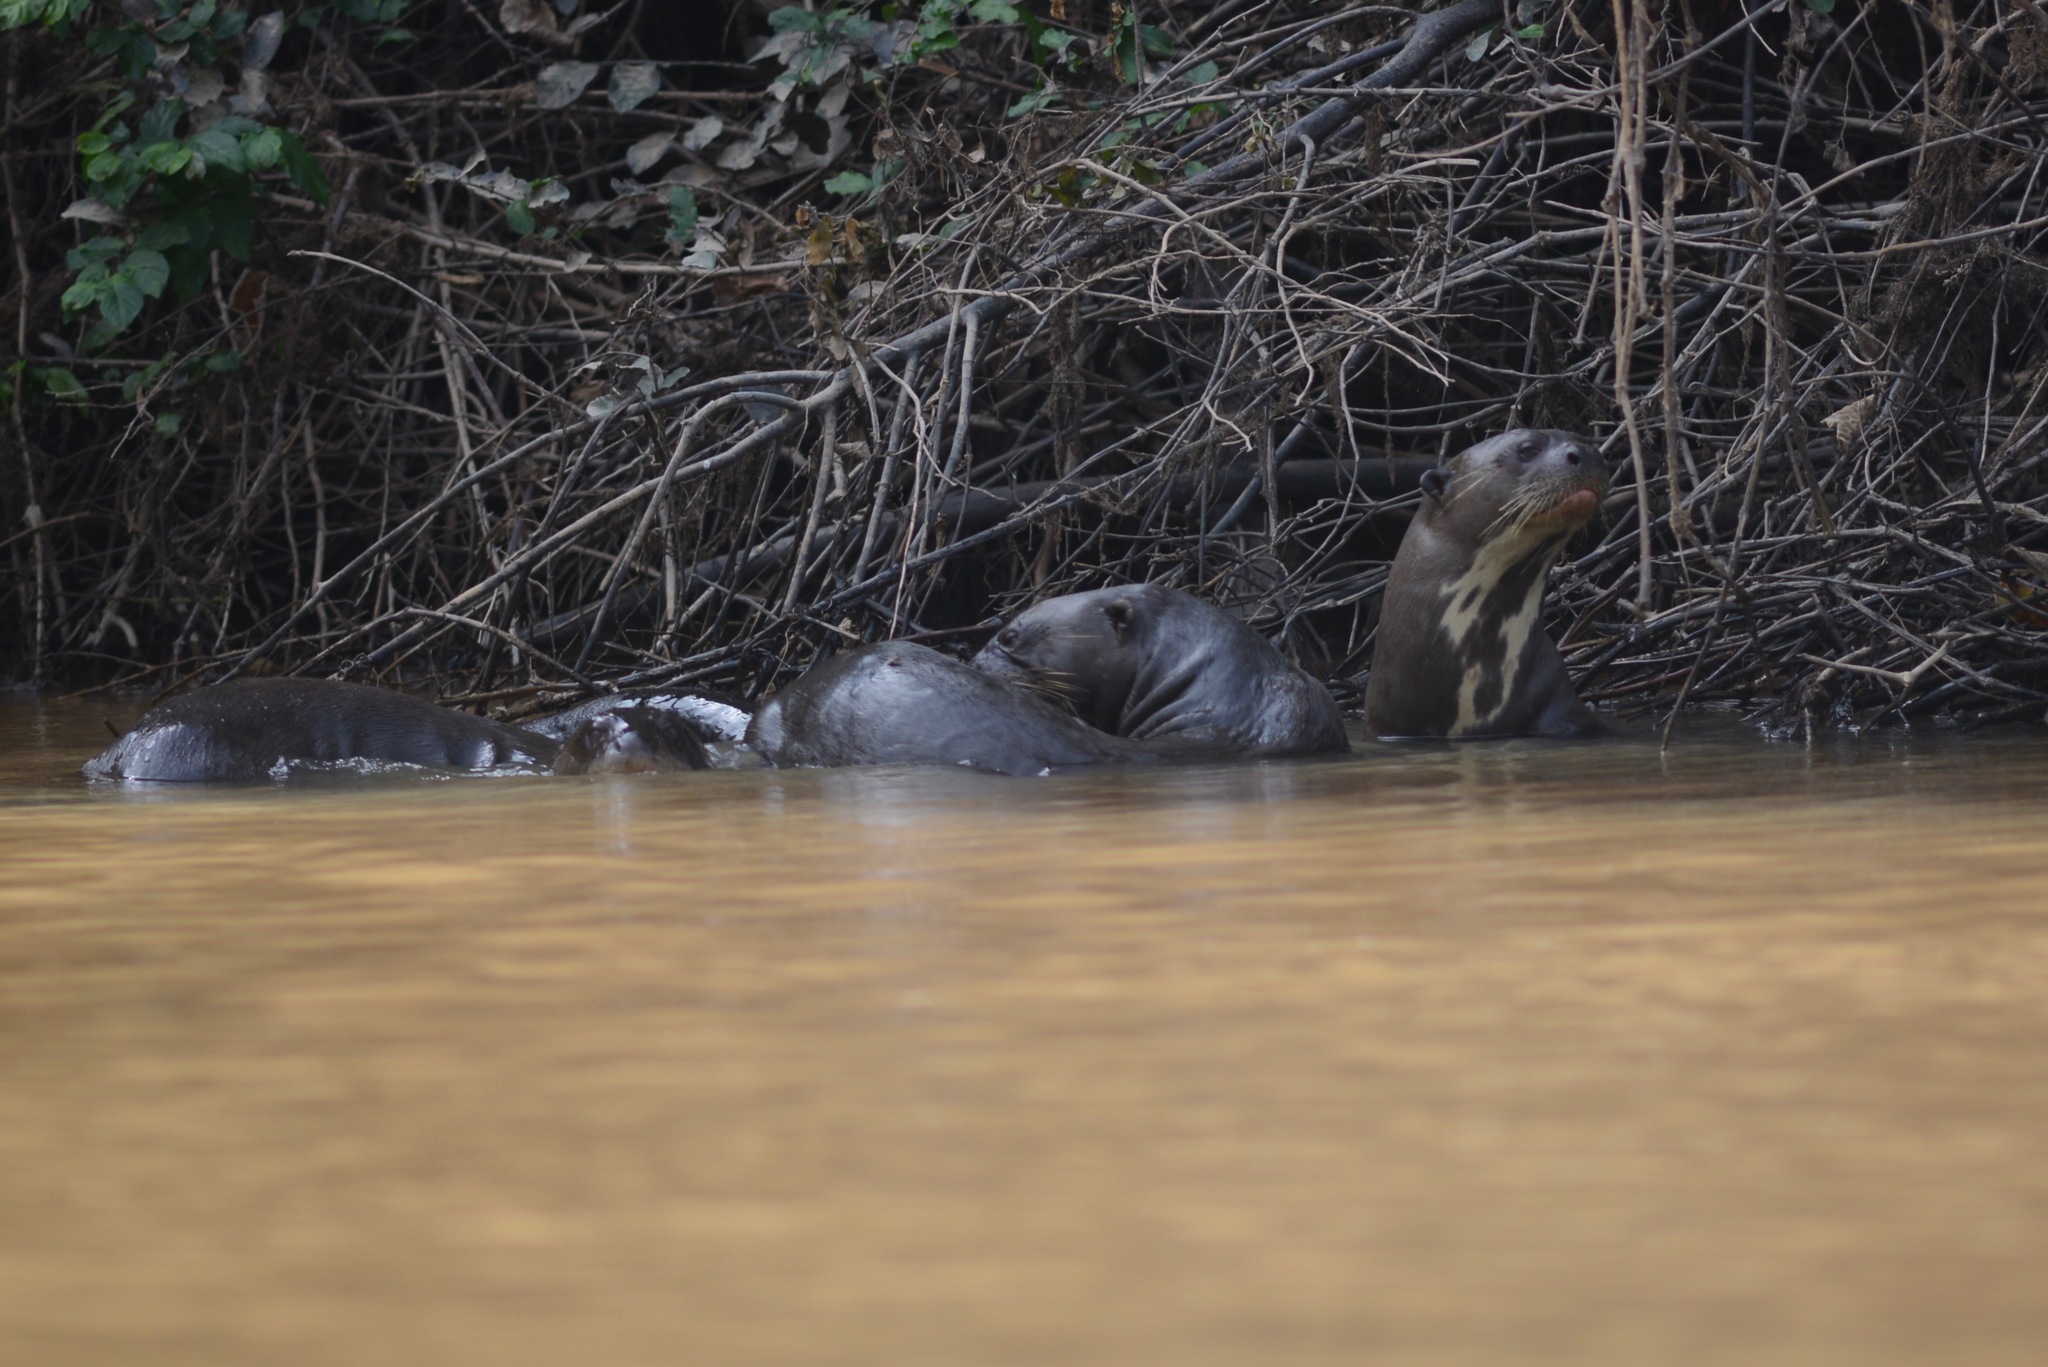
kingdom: Animalia
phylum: Chordata
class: Mammalia
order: Carnivora
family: Mustelidae
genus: Pteronura
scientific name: Pteronura brasiliensis
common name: Giant otter
